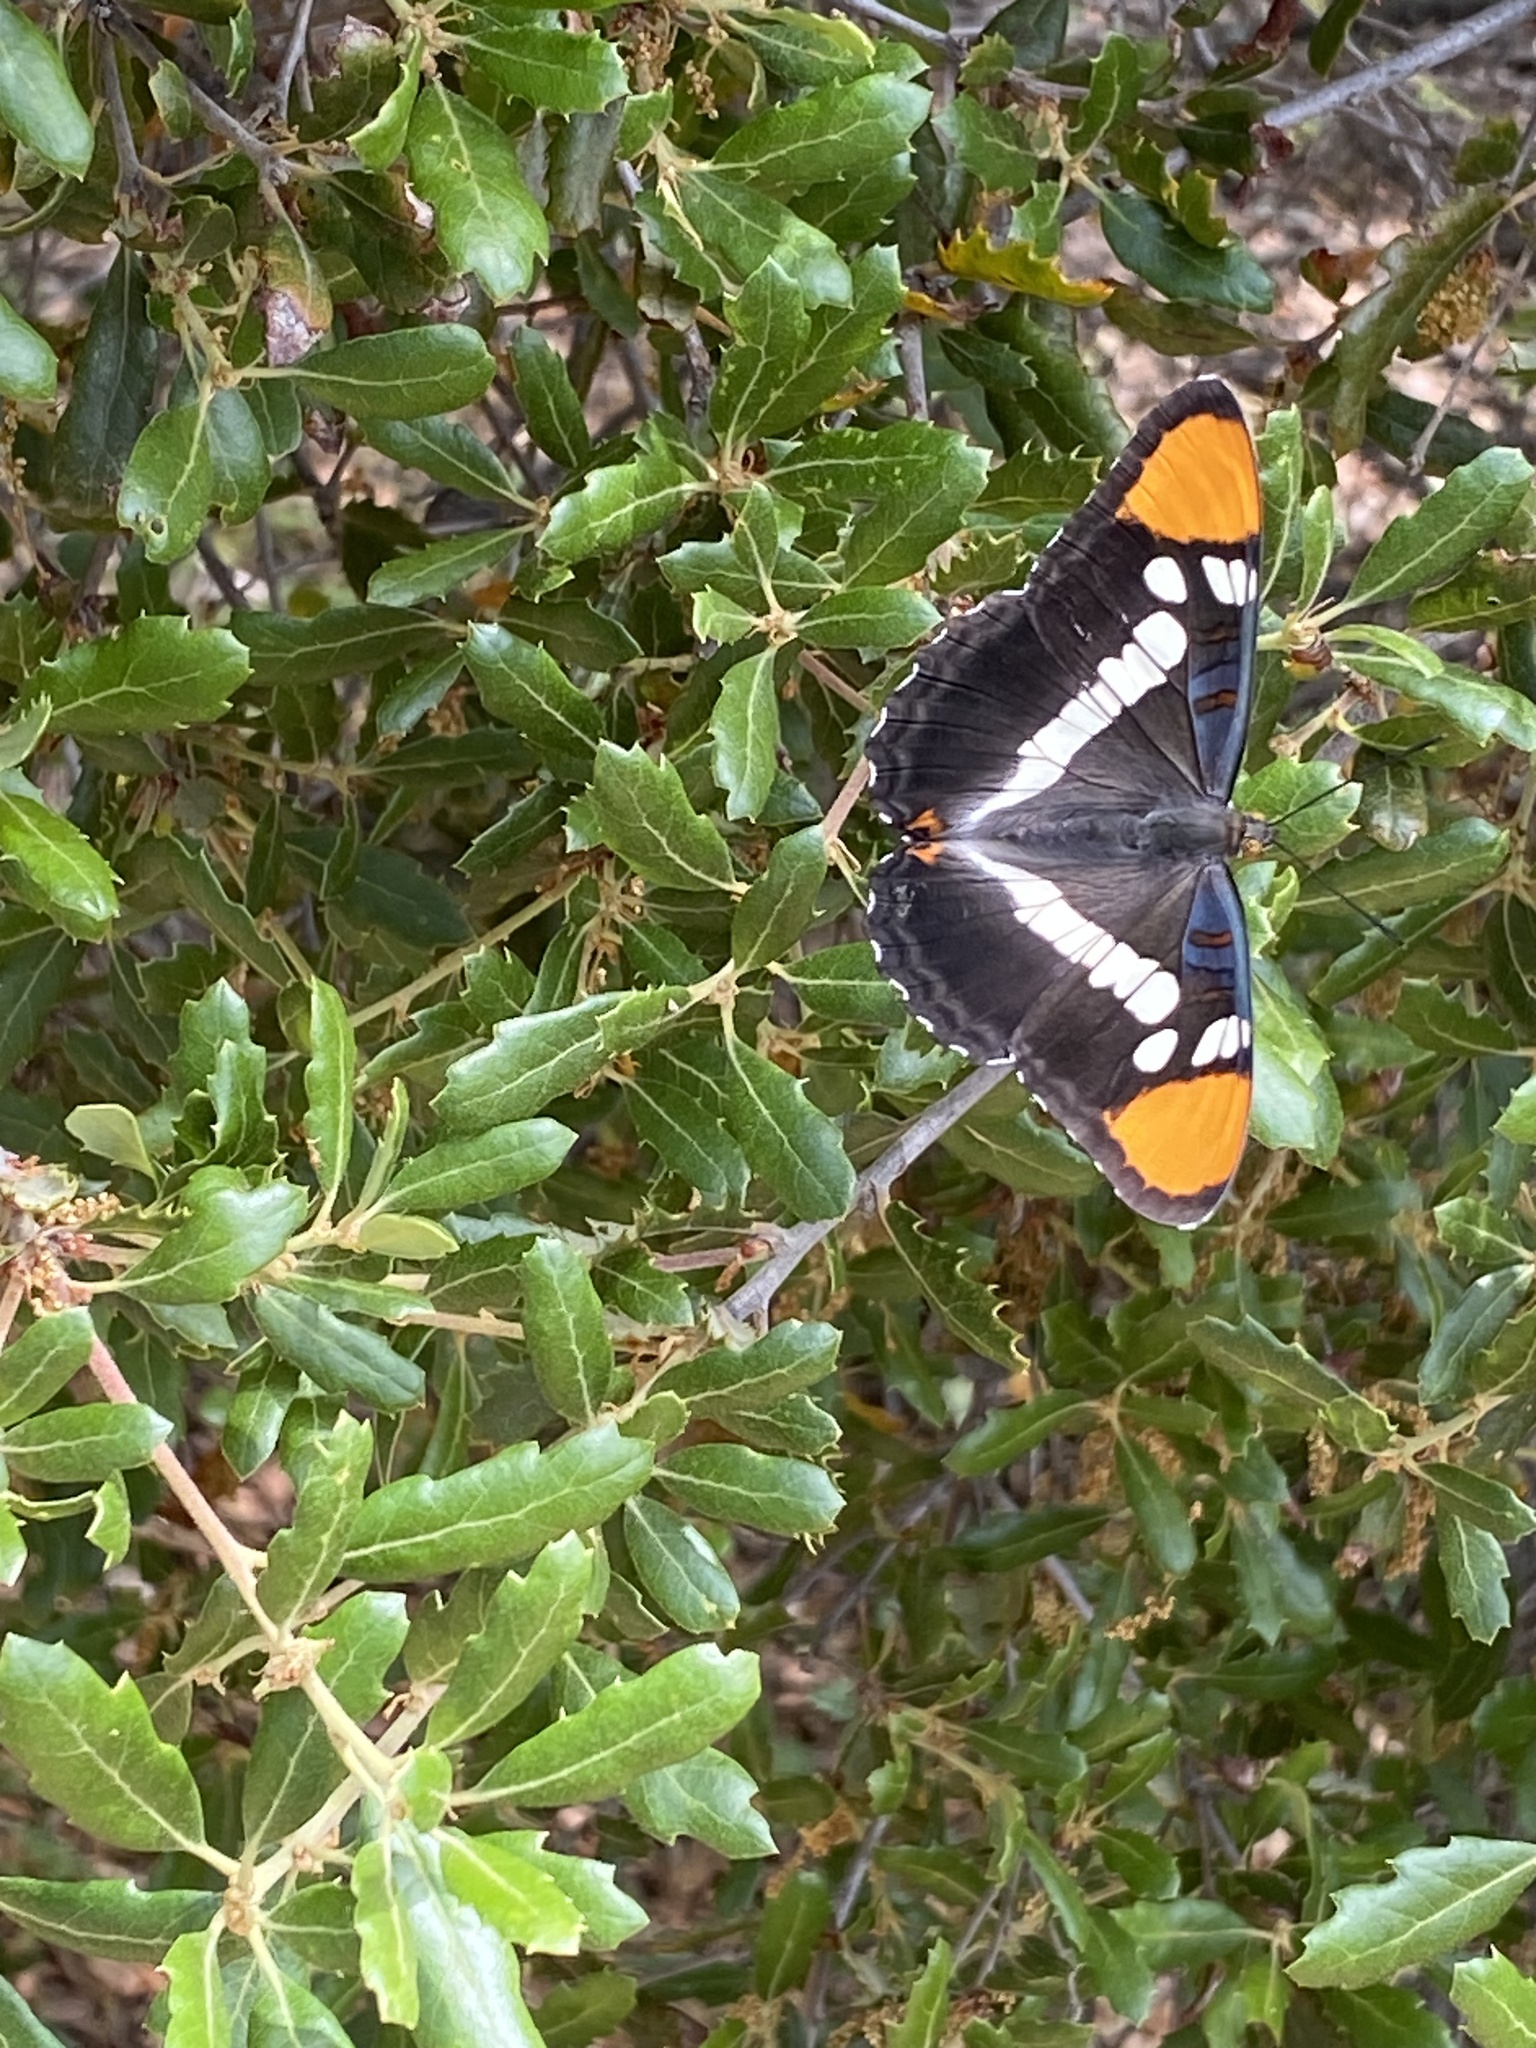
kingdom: Animalia
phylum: Arthropoda
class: Insecta
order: Lepidoptera
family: Nymphalidae
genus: Limenitis
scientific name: Limenitis bredowii
